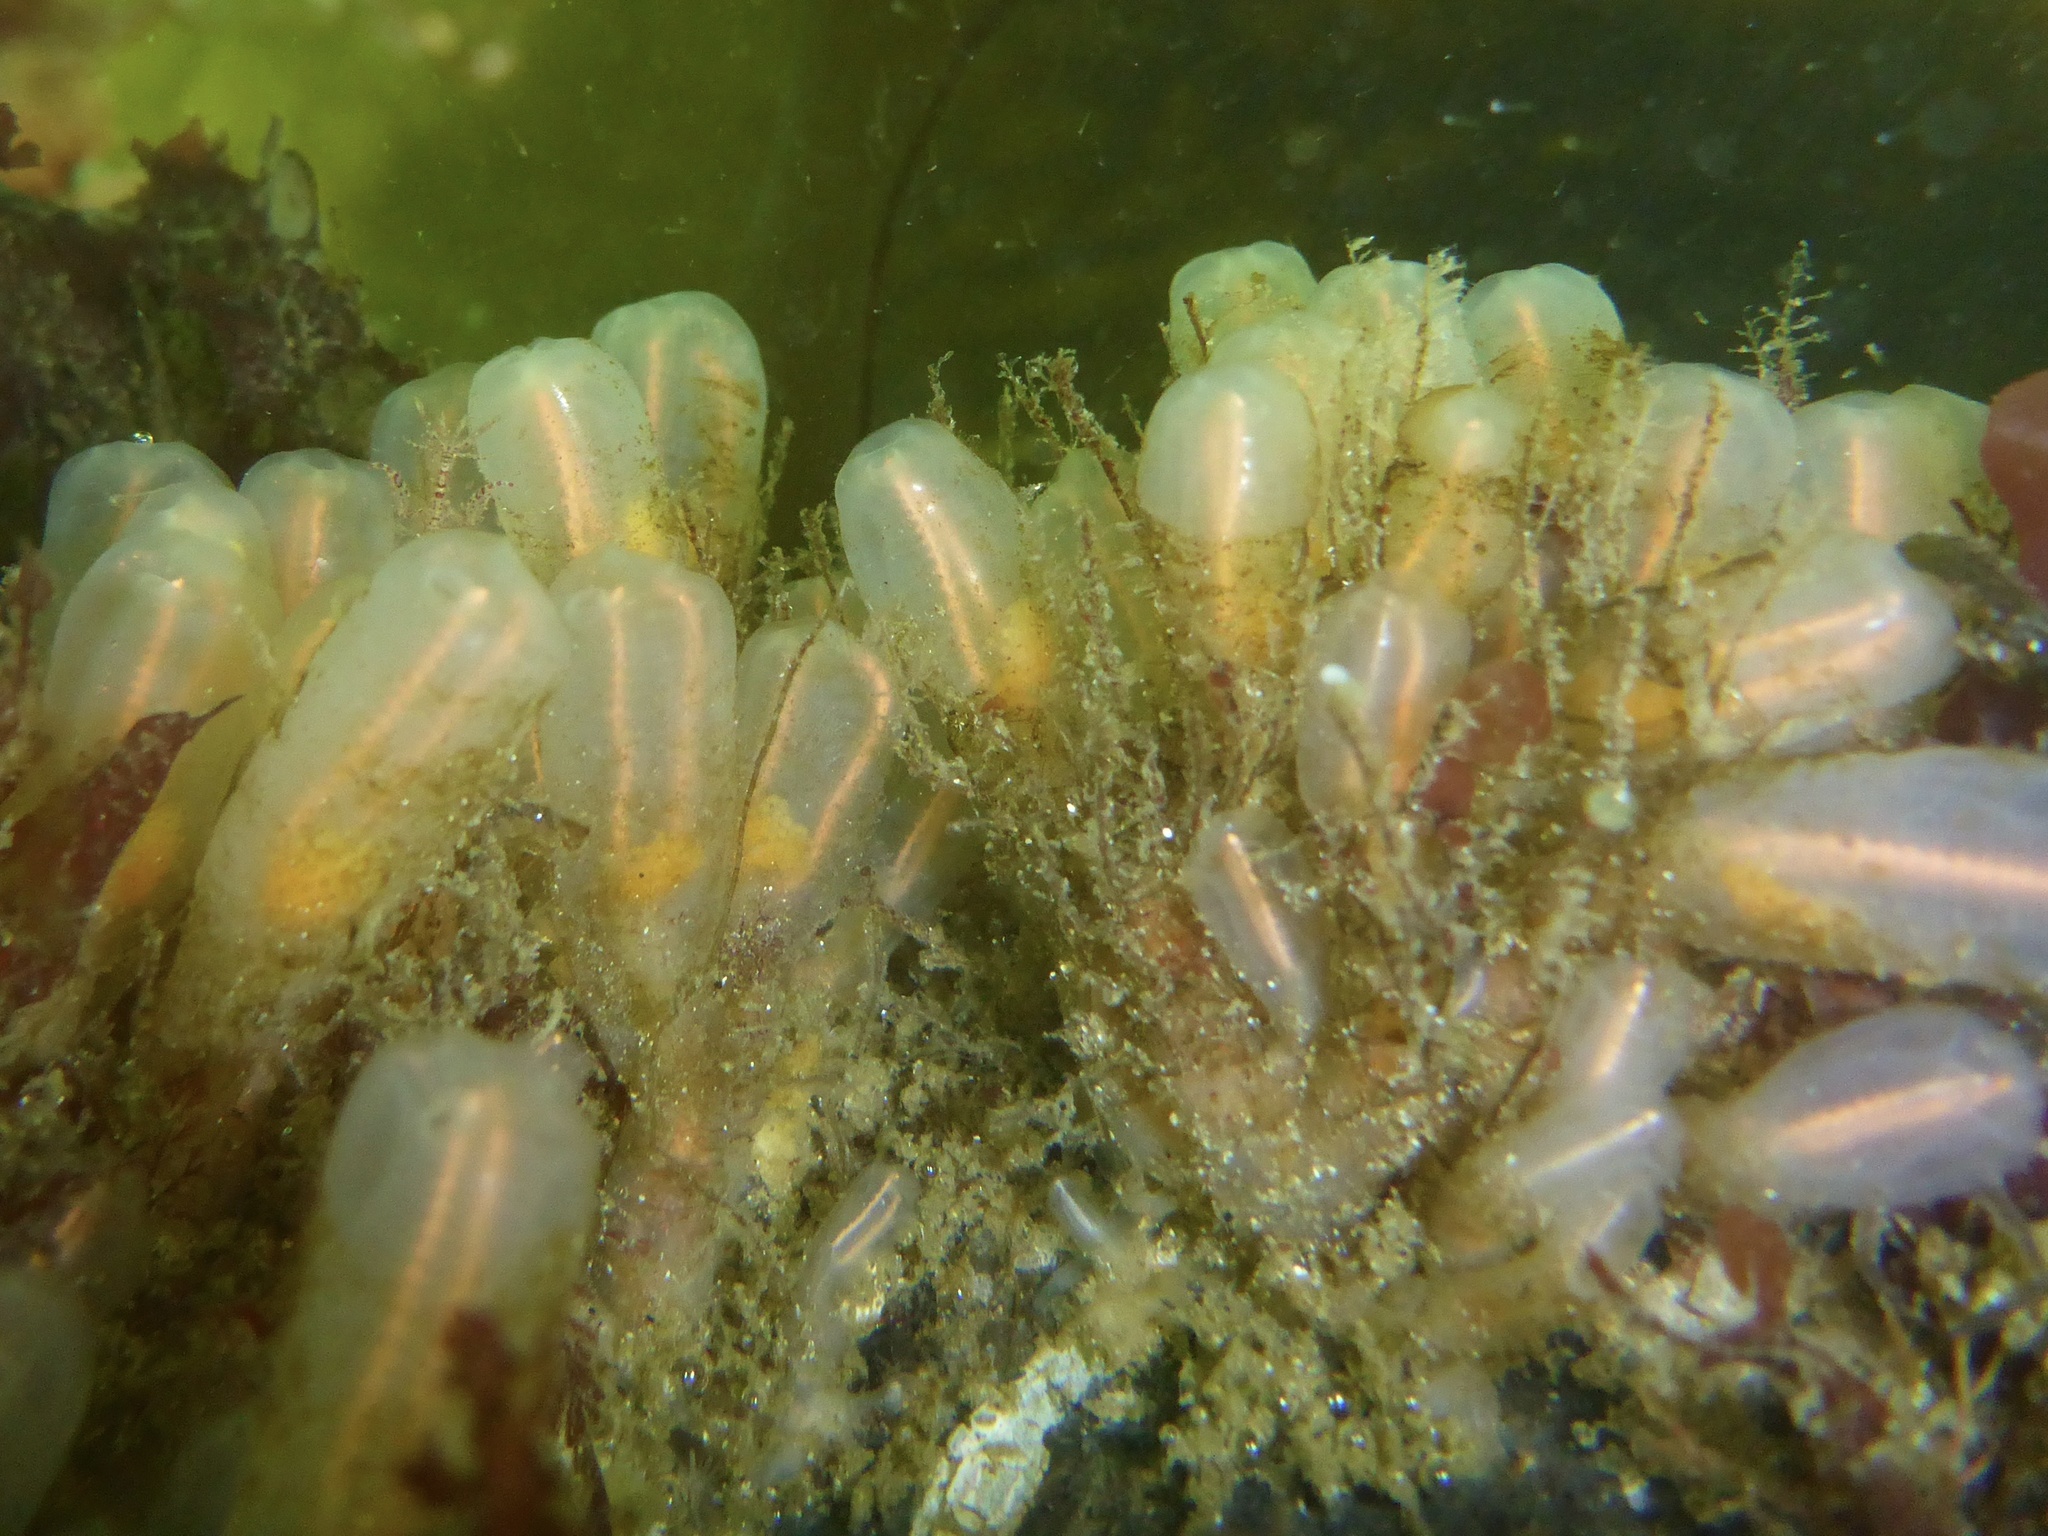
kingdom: Animalia
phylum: Chordata
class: Ascidiacea
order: Aplousobranchia
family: Clavelinidae
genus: Clavelina
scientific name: Clavelina huntsmani
